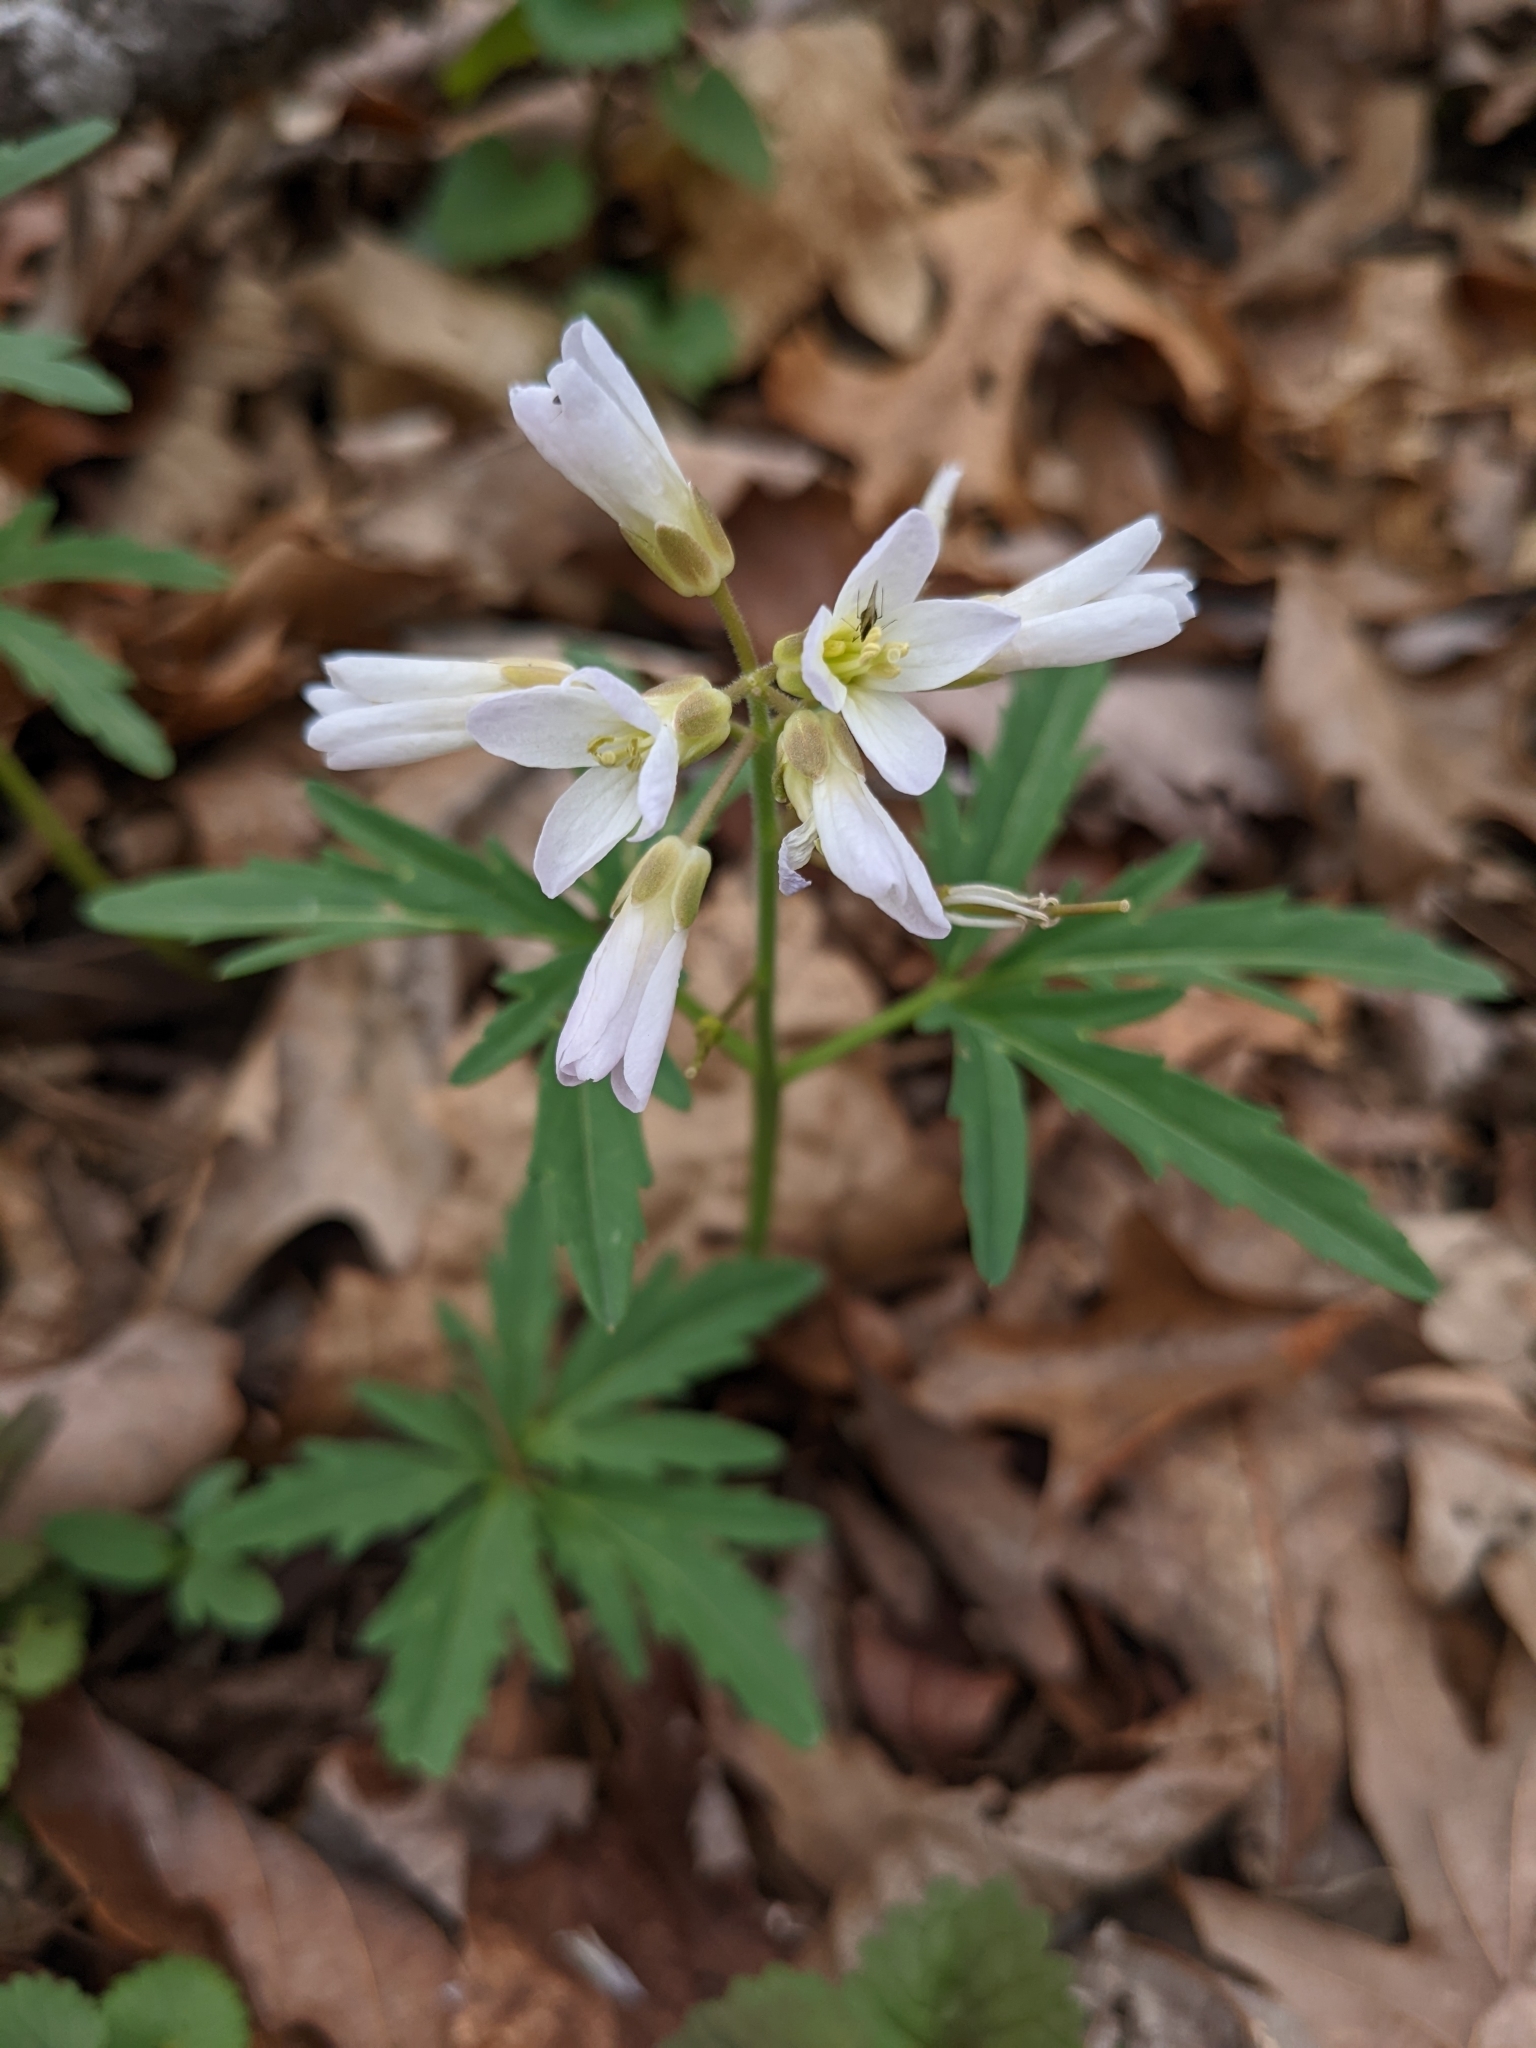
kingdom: Plantae
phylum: Tracheophyta
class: Magnoliopsida
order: Brassicales
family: Brassicaceae
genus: Cardamine
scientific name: Cardamine concatenata
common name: Cut-leaf toothcup
